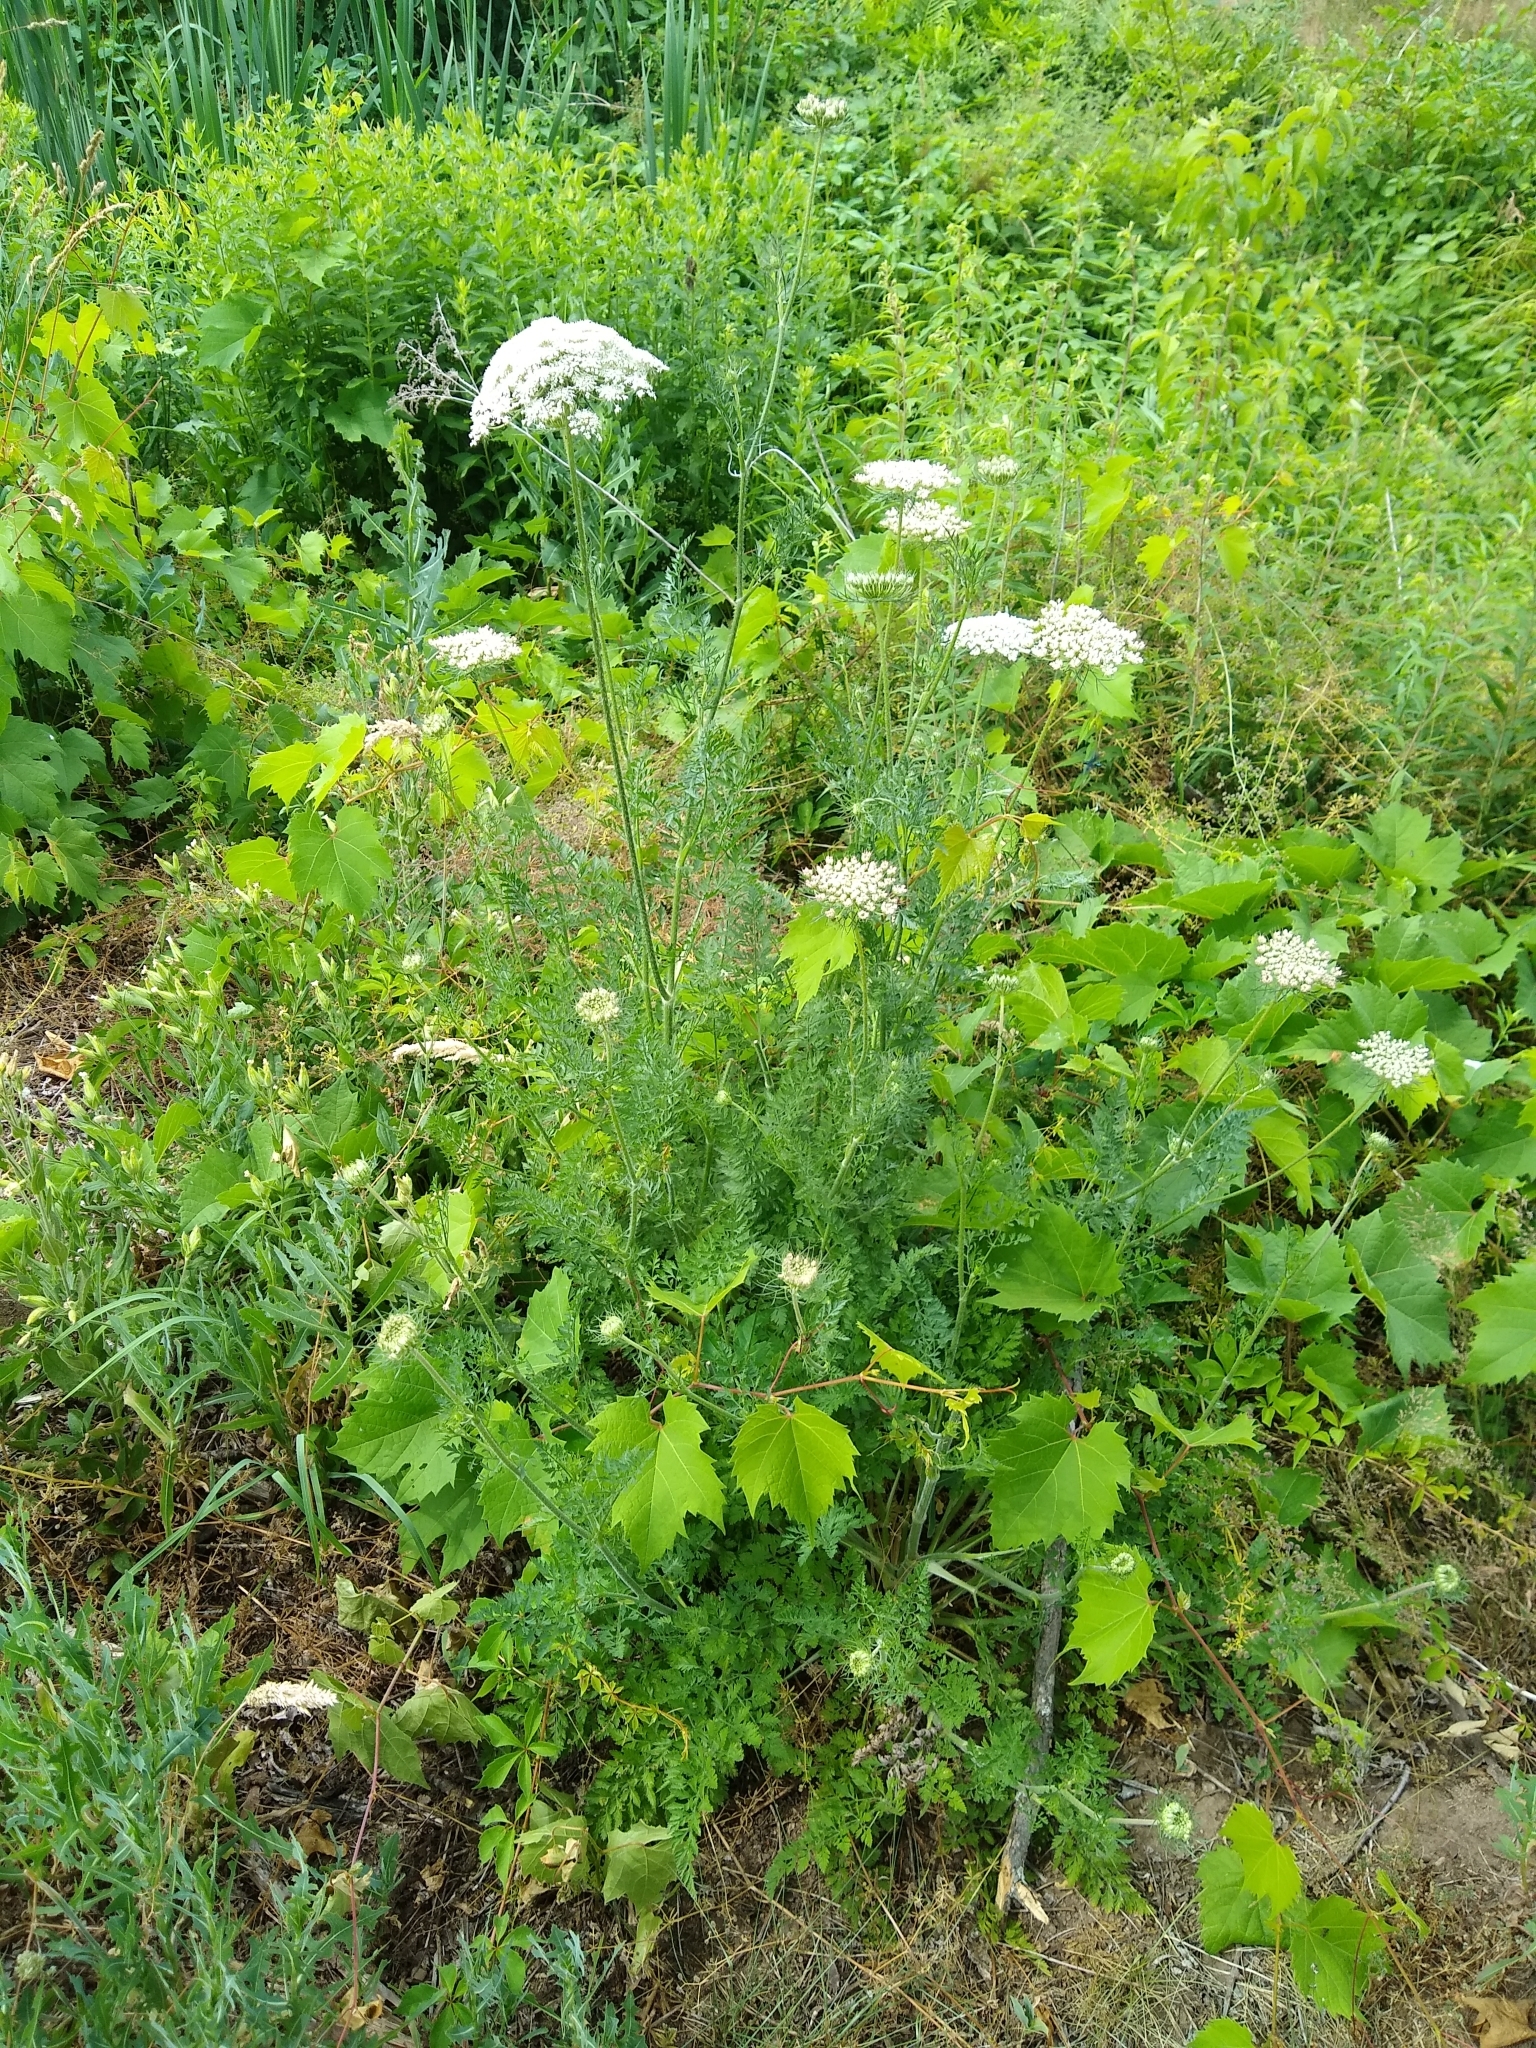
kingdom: Plantae
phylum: Tracheophyta
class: Magnoliopsida
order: Apiales
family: Apiaceae
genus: Daucus
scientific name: Daucus carota
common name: Wild carrot
